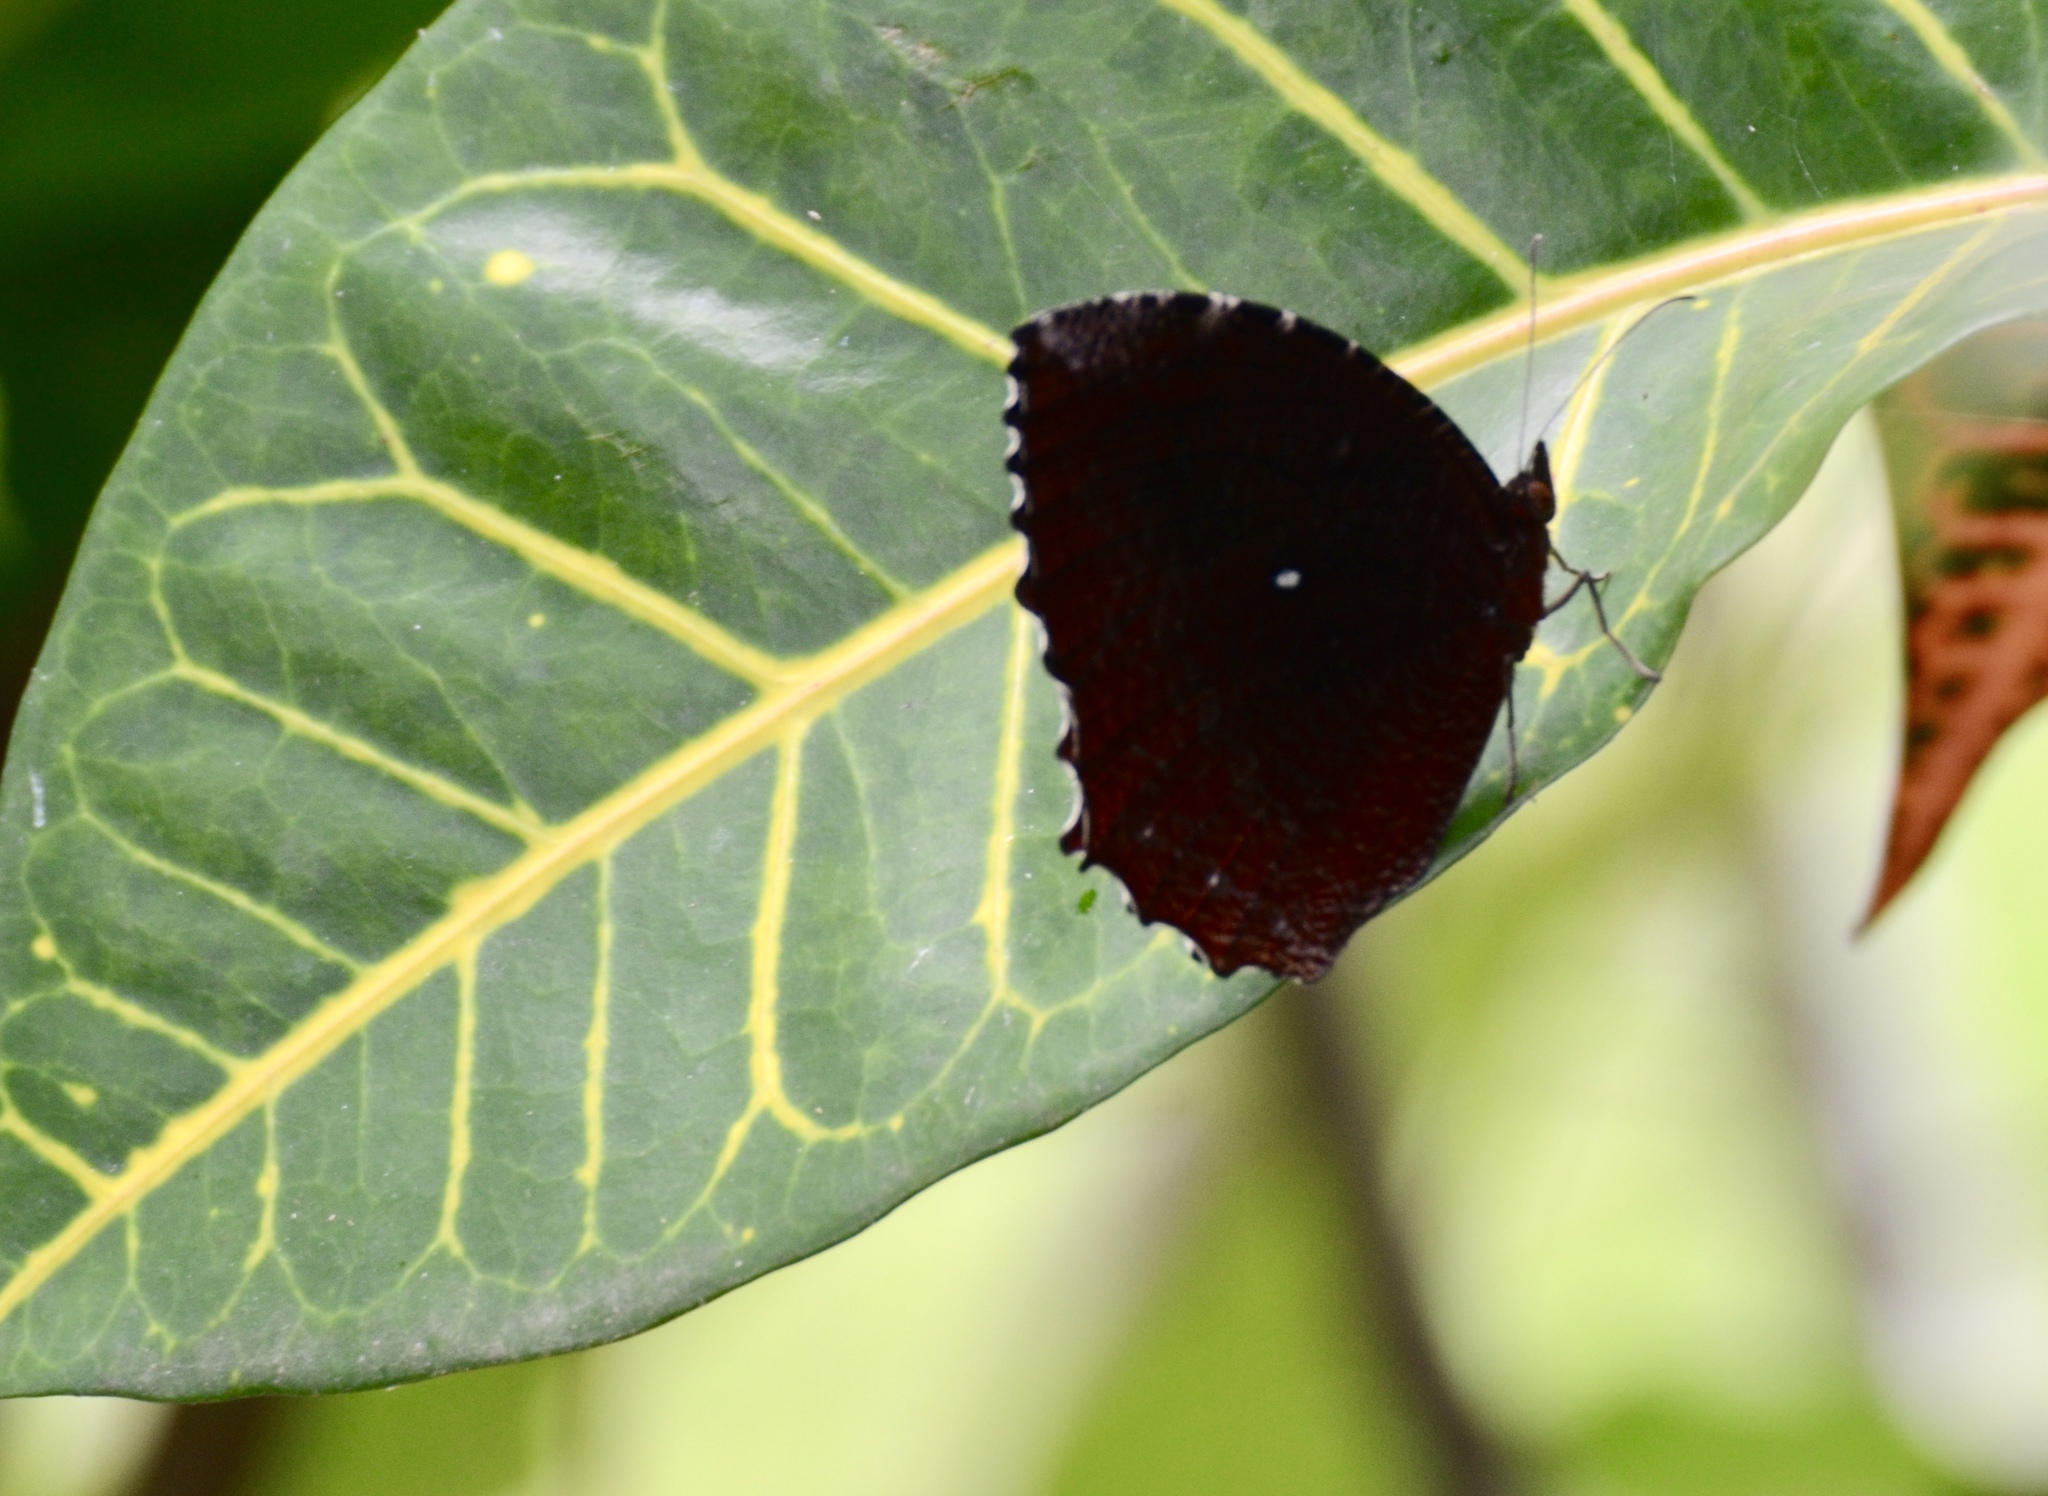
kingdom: Animalia
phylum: Arthropoda
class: Insecta
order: Lepidoptera
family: Nymphalidae
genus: Elymnias
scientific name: Elymnias hypermnestra
